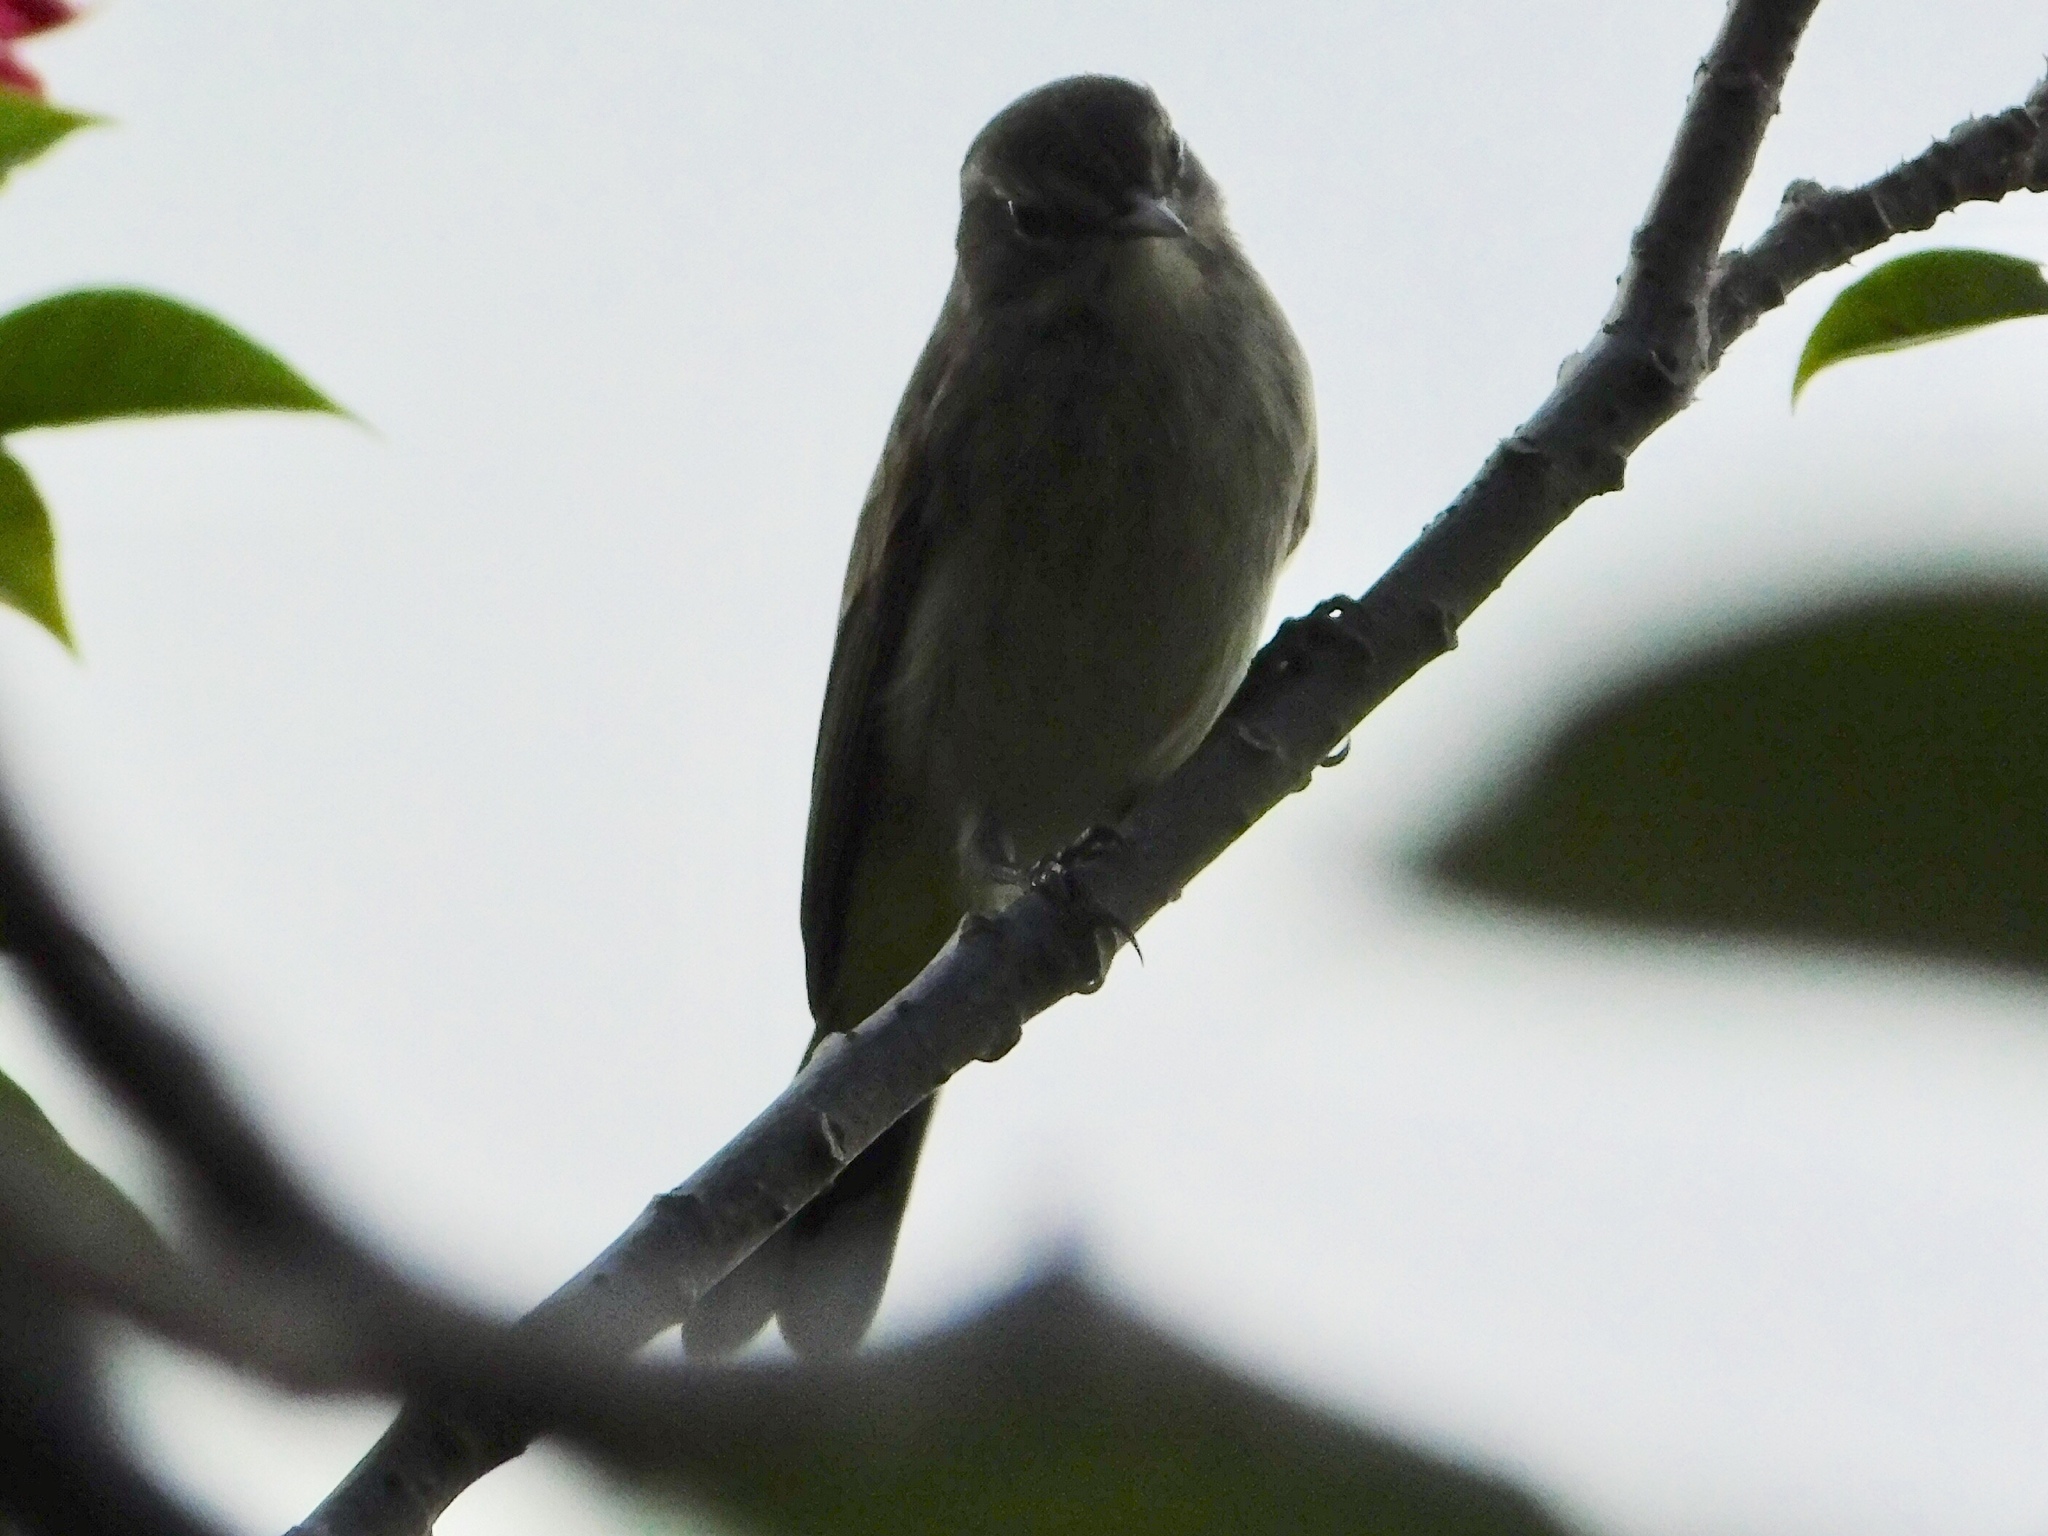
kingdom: Animalia
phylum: Chordata
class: Aves
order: Passeriformes
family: Parulidae
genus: Setophaga
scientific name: Setophaga palmarum
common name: Palm warbler
